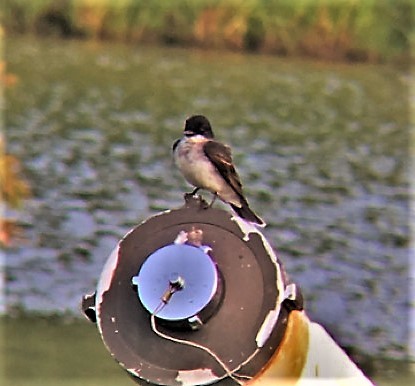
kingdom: Animalia
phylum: Chordata
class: Aves
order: Passeriformes
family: Tyrannidae
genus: Tyrannus
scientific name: Tyrannus tyrannus
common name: Eastern kingbird
